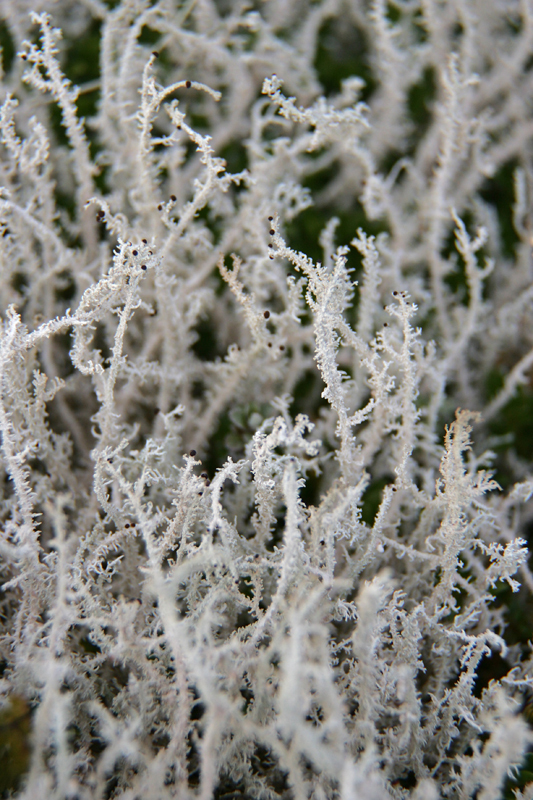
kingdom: Fungi
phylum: Ascomycota
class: Lecanoromycetes
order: Lecanorales
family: Stereocaulaceae
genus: Stereocaulon
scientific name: Stereocaulon ramulosum
